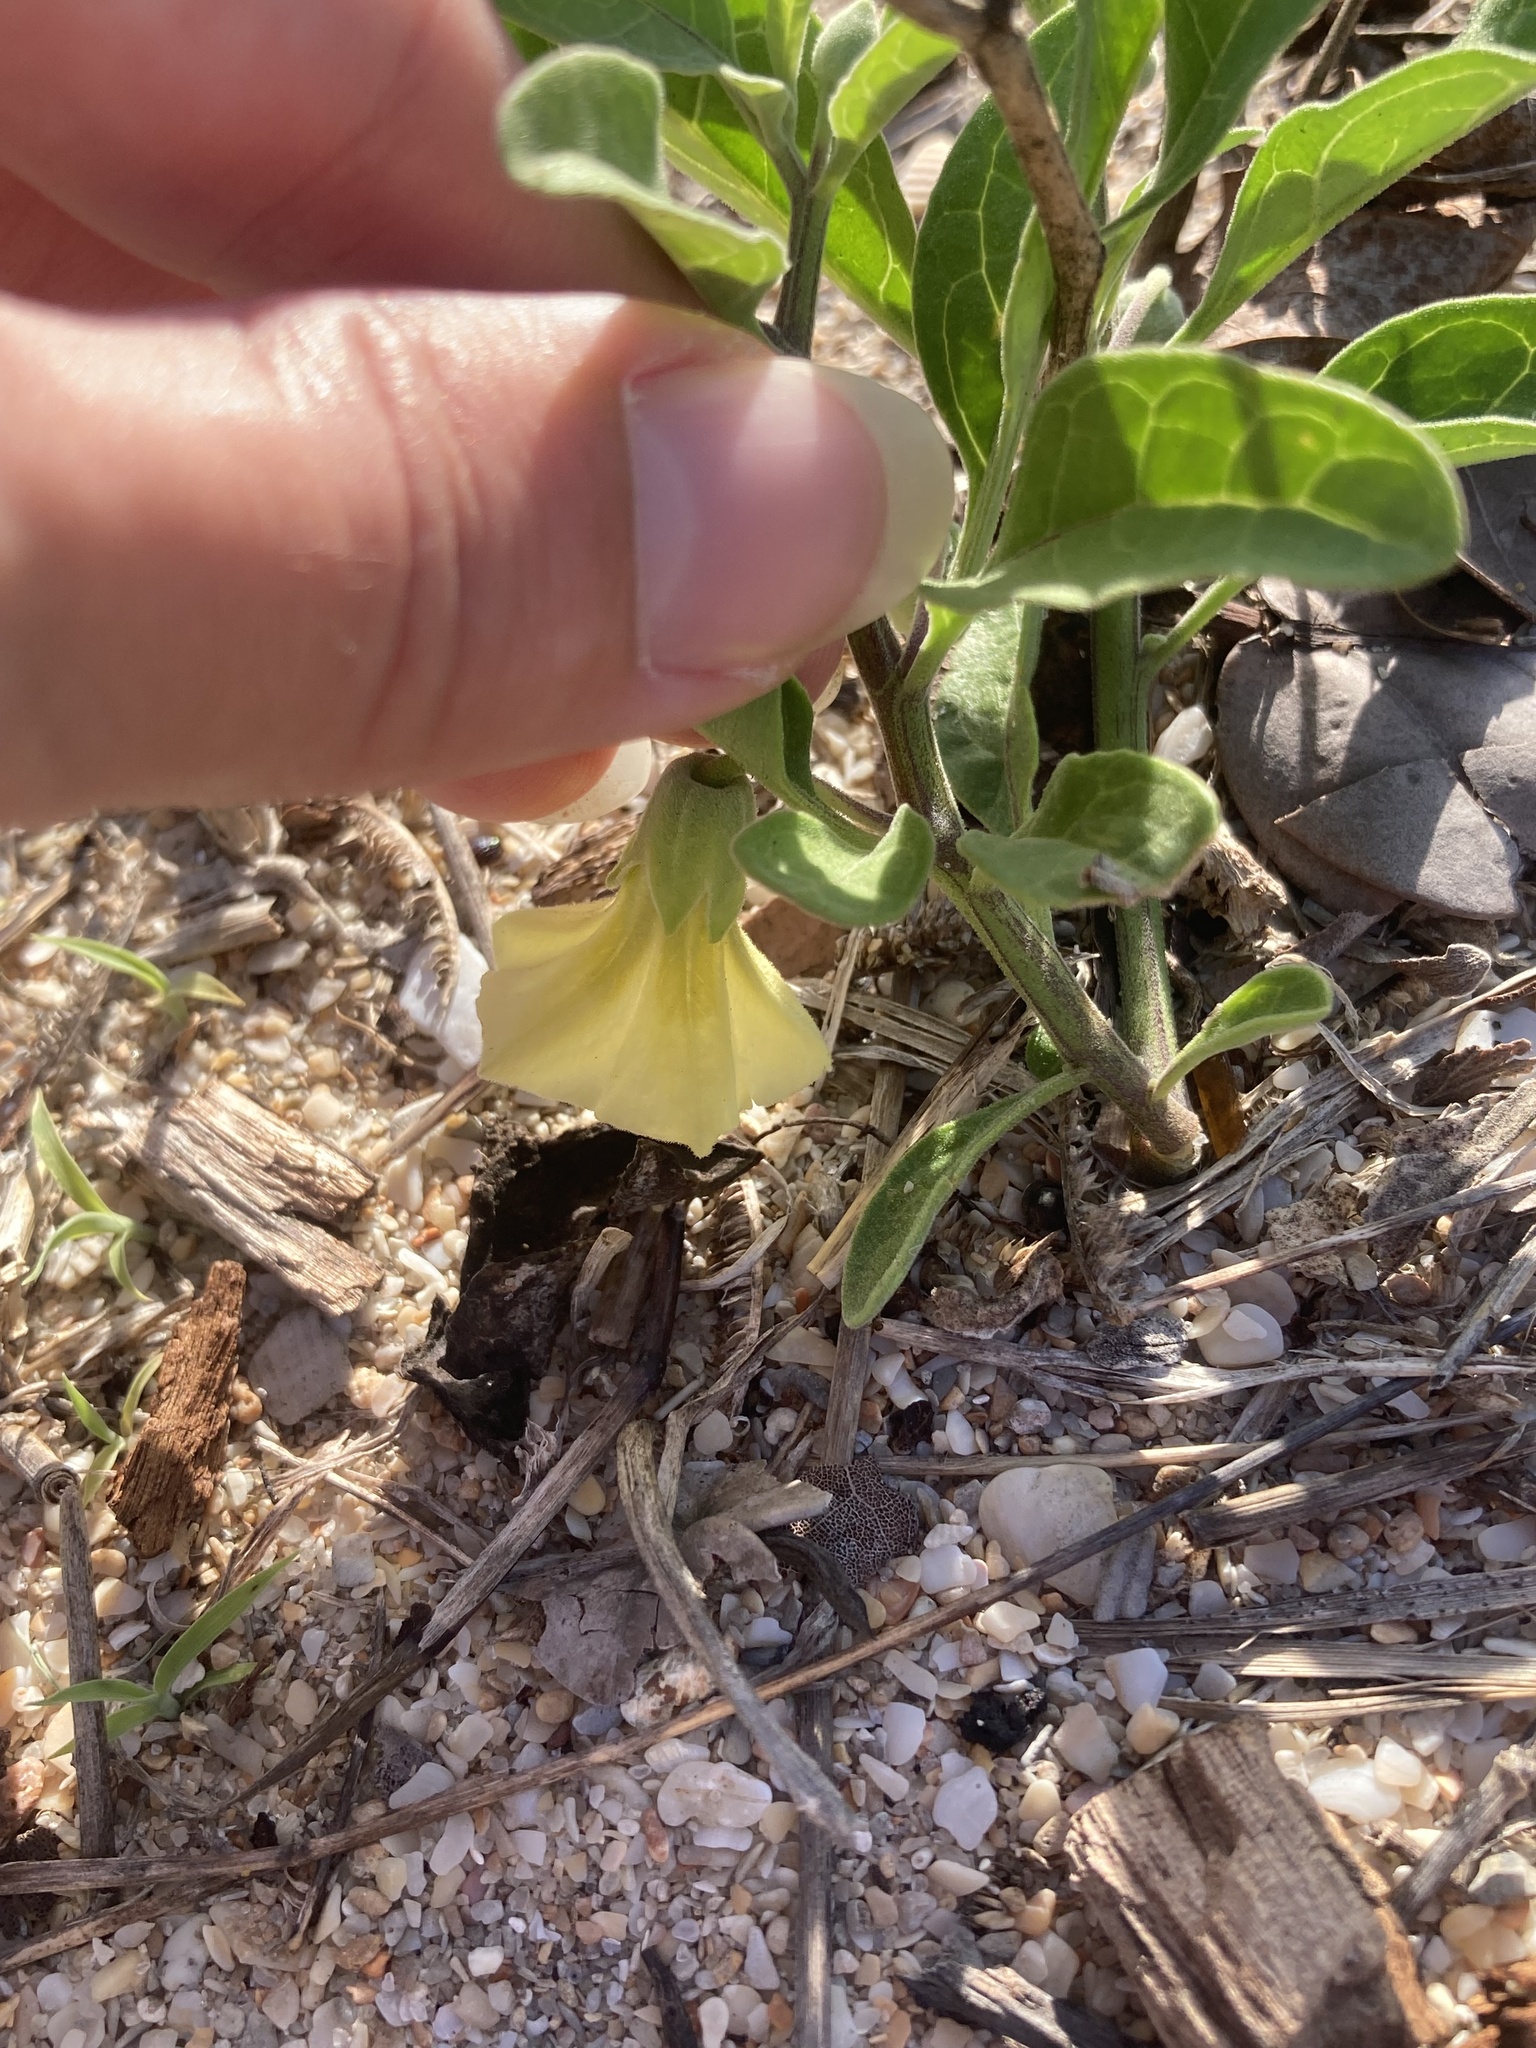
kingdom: Plantae
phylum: Tracheophyta
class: Magnoliopsida
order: Solanales
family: Solanaceae
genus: Physalis
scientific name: Physalis walteri
